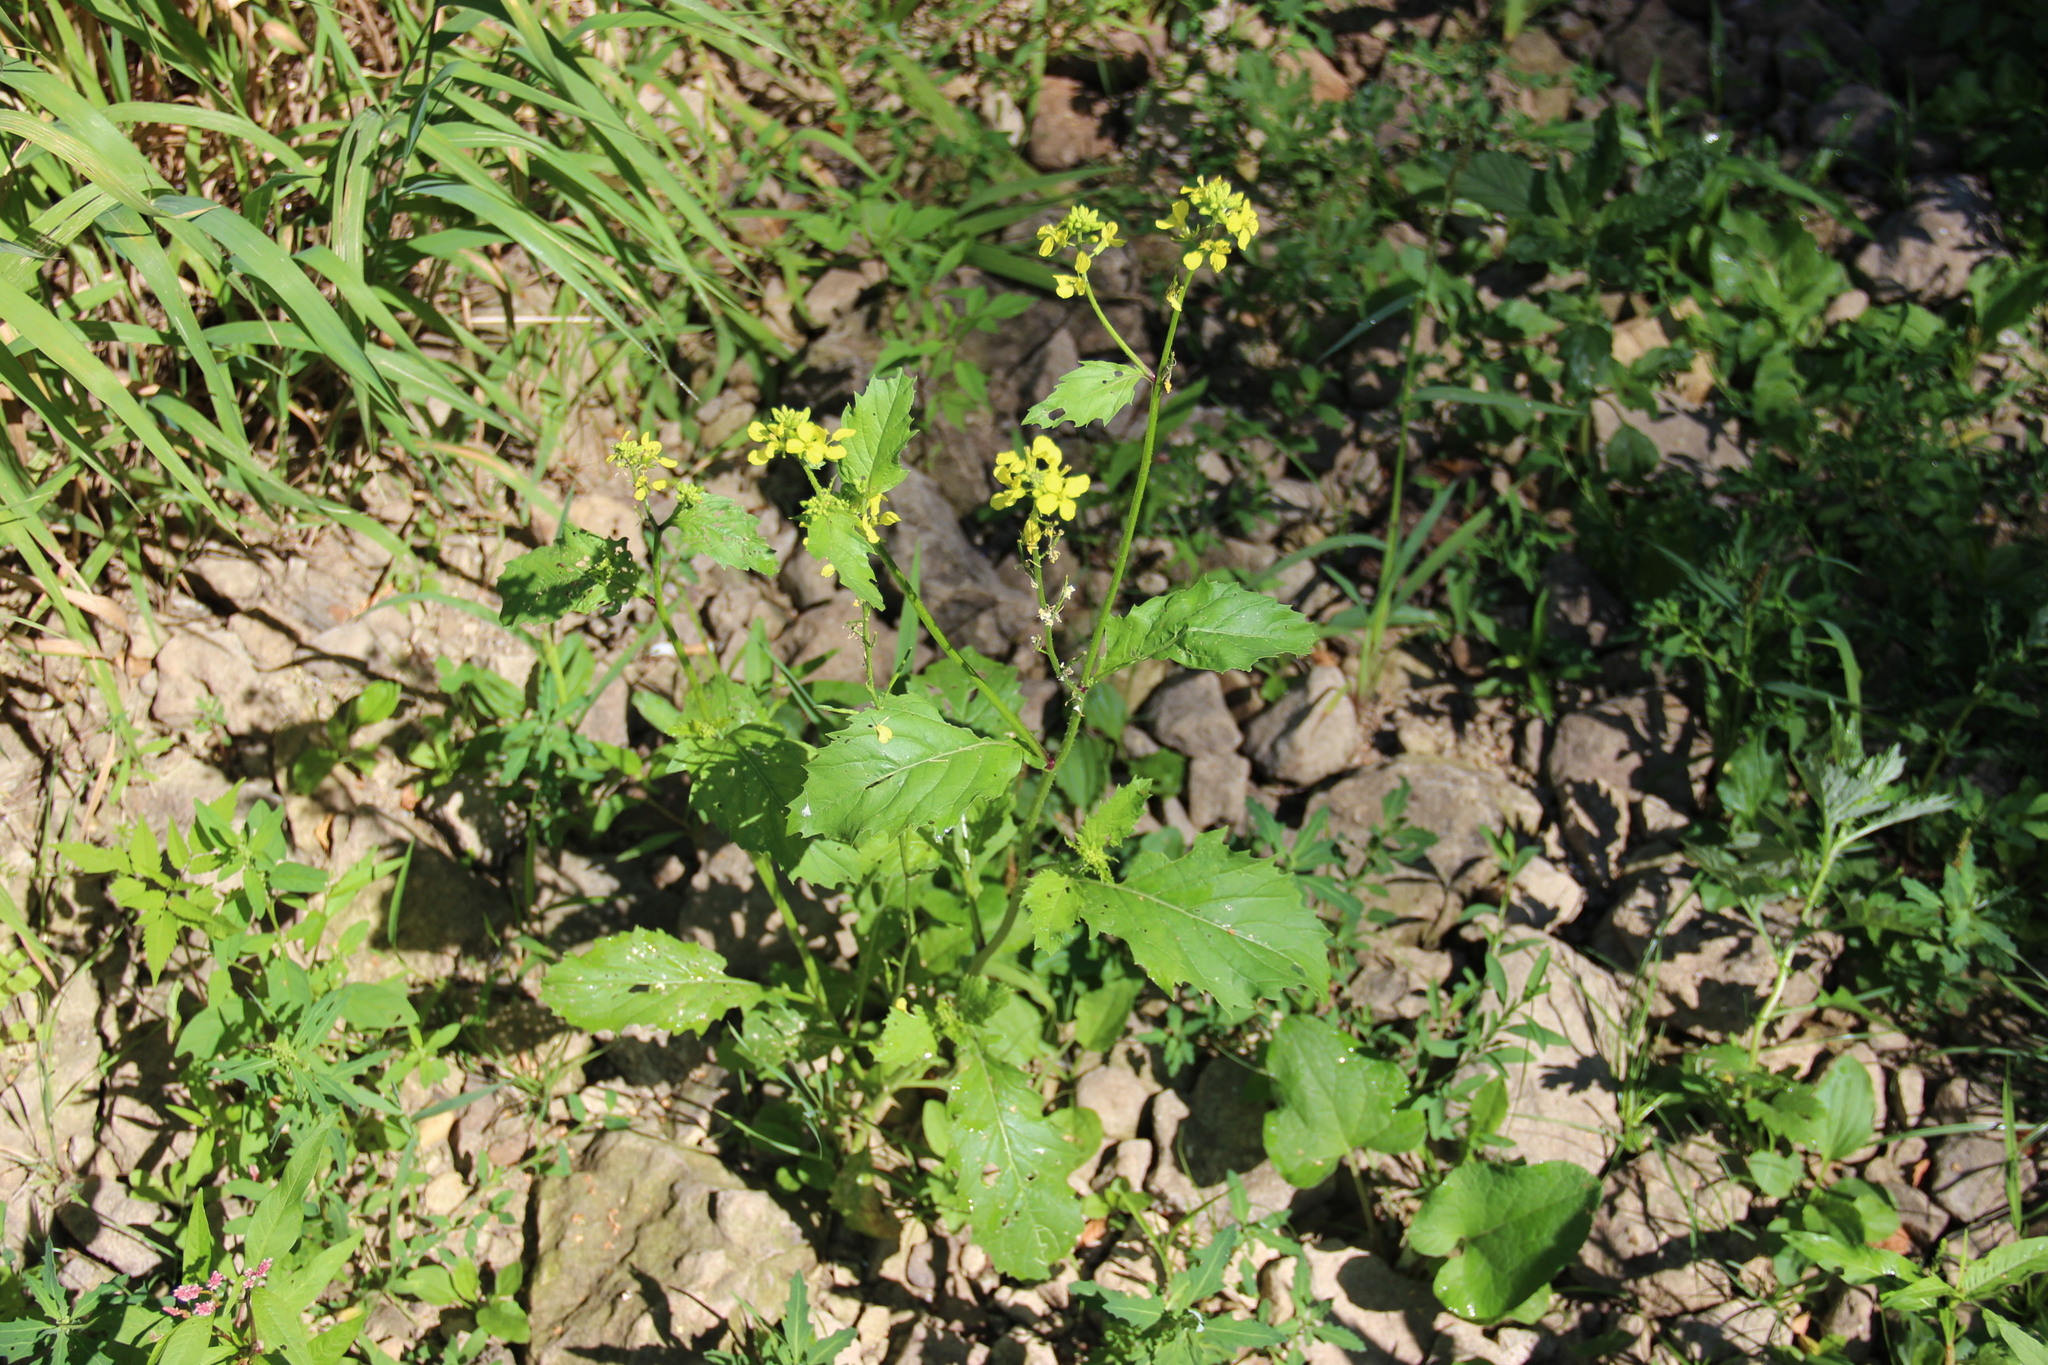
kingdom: Plantae
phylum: Tracheophyta
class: Magnoliopsida
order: Brassicales
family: Brassicaceae
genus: Sinapis
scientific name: Sinapis arvensis
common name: Charlock
